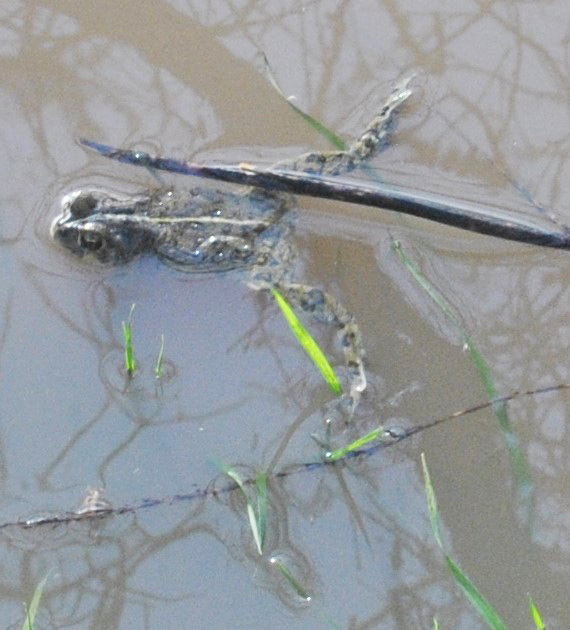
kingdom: Animalia
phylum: Chordata
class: Amphibia
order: Anura
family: Bufonidae
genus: Anaxyrus
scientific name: Anaxyrus boreas
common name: Western toad
